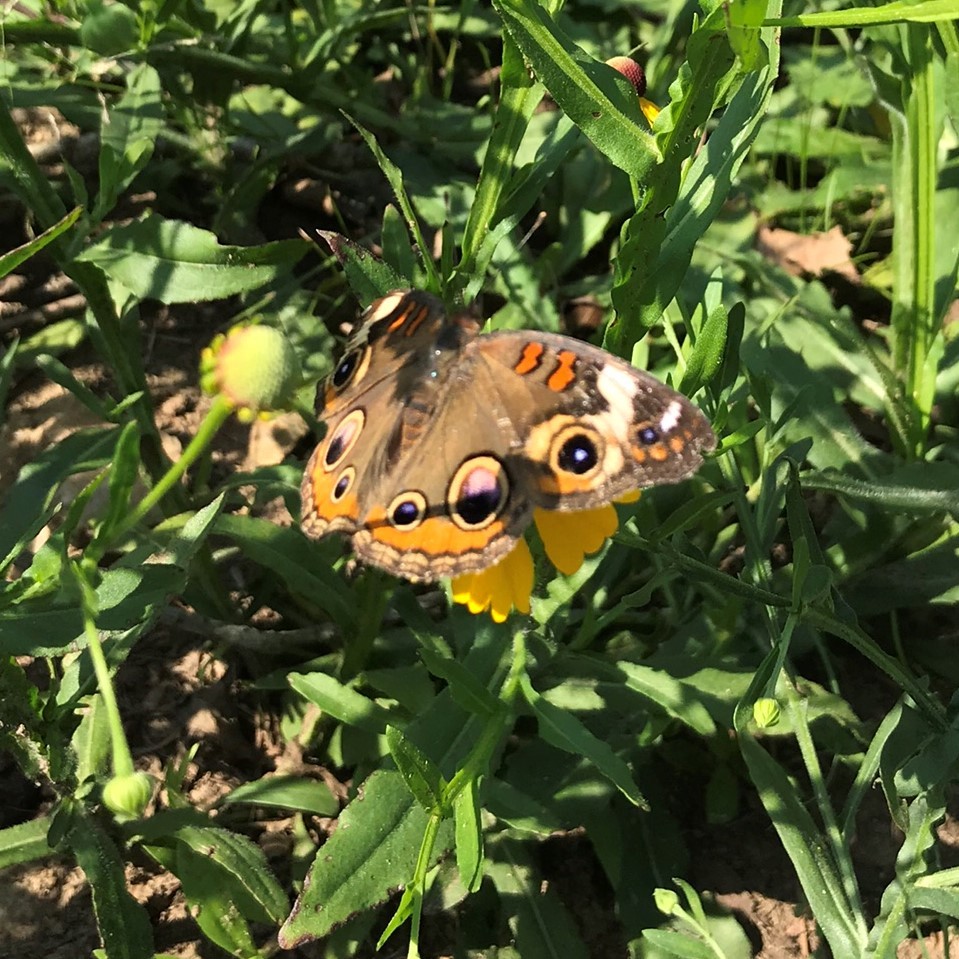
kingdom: Animalia
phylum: Arthropoda
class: Insecta
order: Lepidoptera
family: Nymphalidae
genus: Junonia
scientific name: Junonia coenia
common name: Common buckeye
